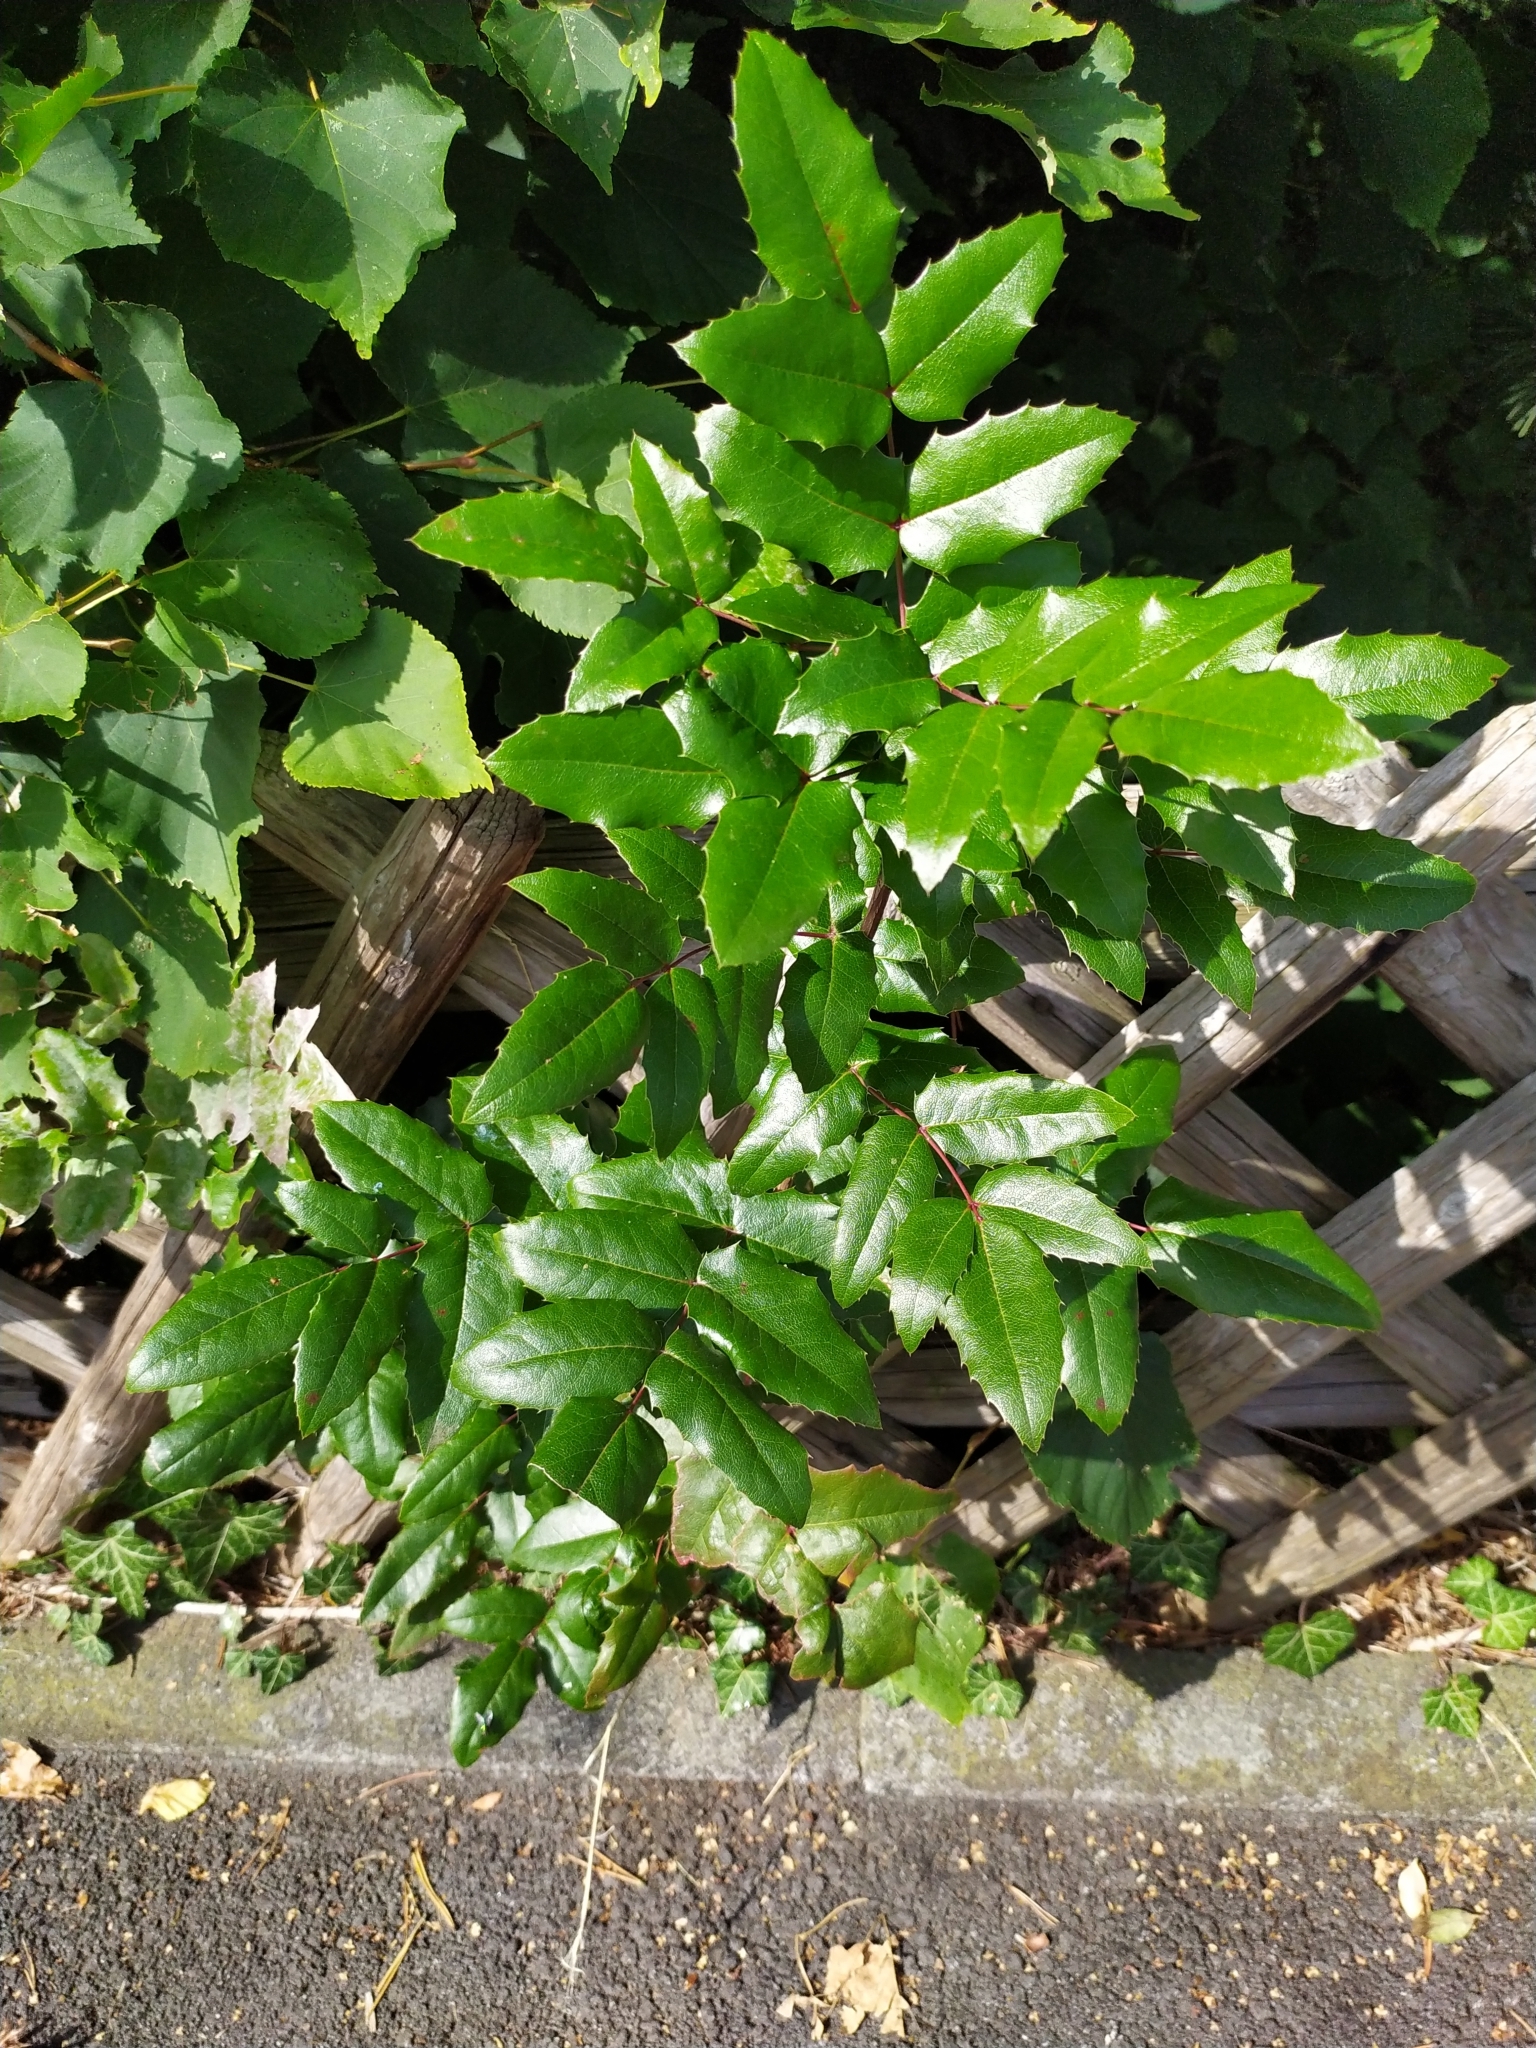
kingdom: Plantae
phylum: Tracheophyta
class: Magnoliopsida
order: Ranunculales
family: Berberidaceae
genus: Mahonia
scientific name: Mahonia aquifolium
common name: Oregon-grape
